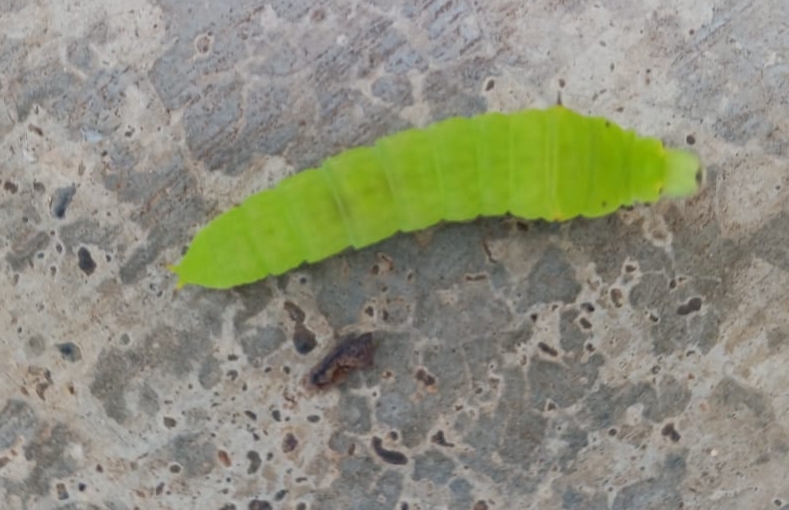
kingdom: Animalia
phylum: Arthropoda
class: Insecta
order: Lepidoptera
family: Papilionidae
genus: Graphium
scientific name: Graphium doson
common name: Common jay
